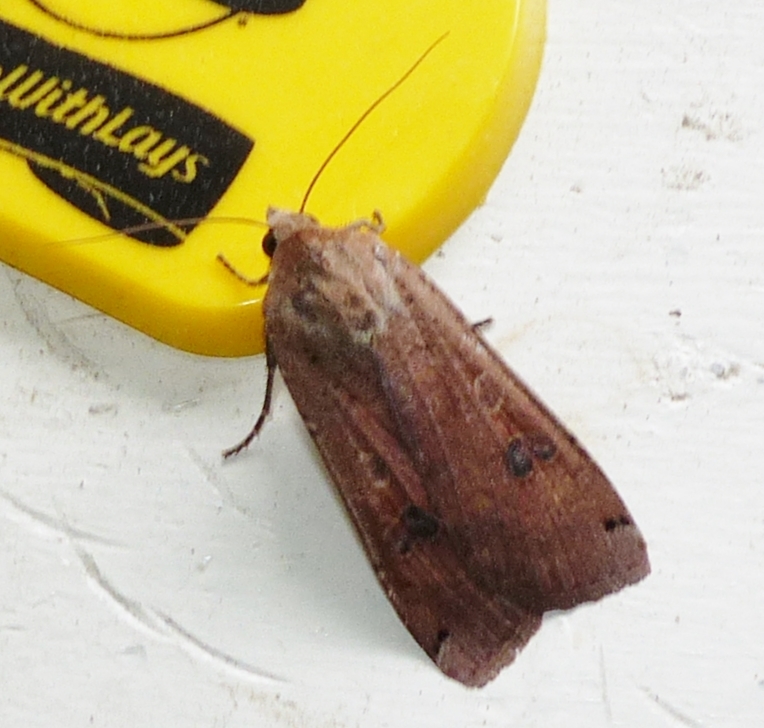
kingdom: Animalia
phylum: Arthropoda
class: Insecta
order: Lepidoptera
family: Noctuidae
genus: Noctua
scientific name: Noctua pronuba
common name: Large yellow underwing
